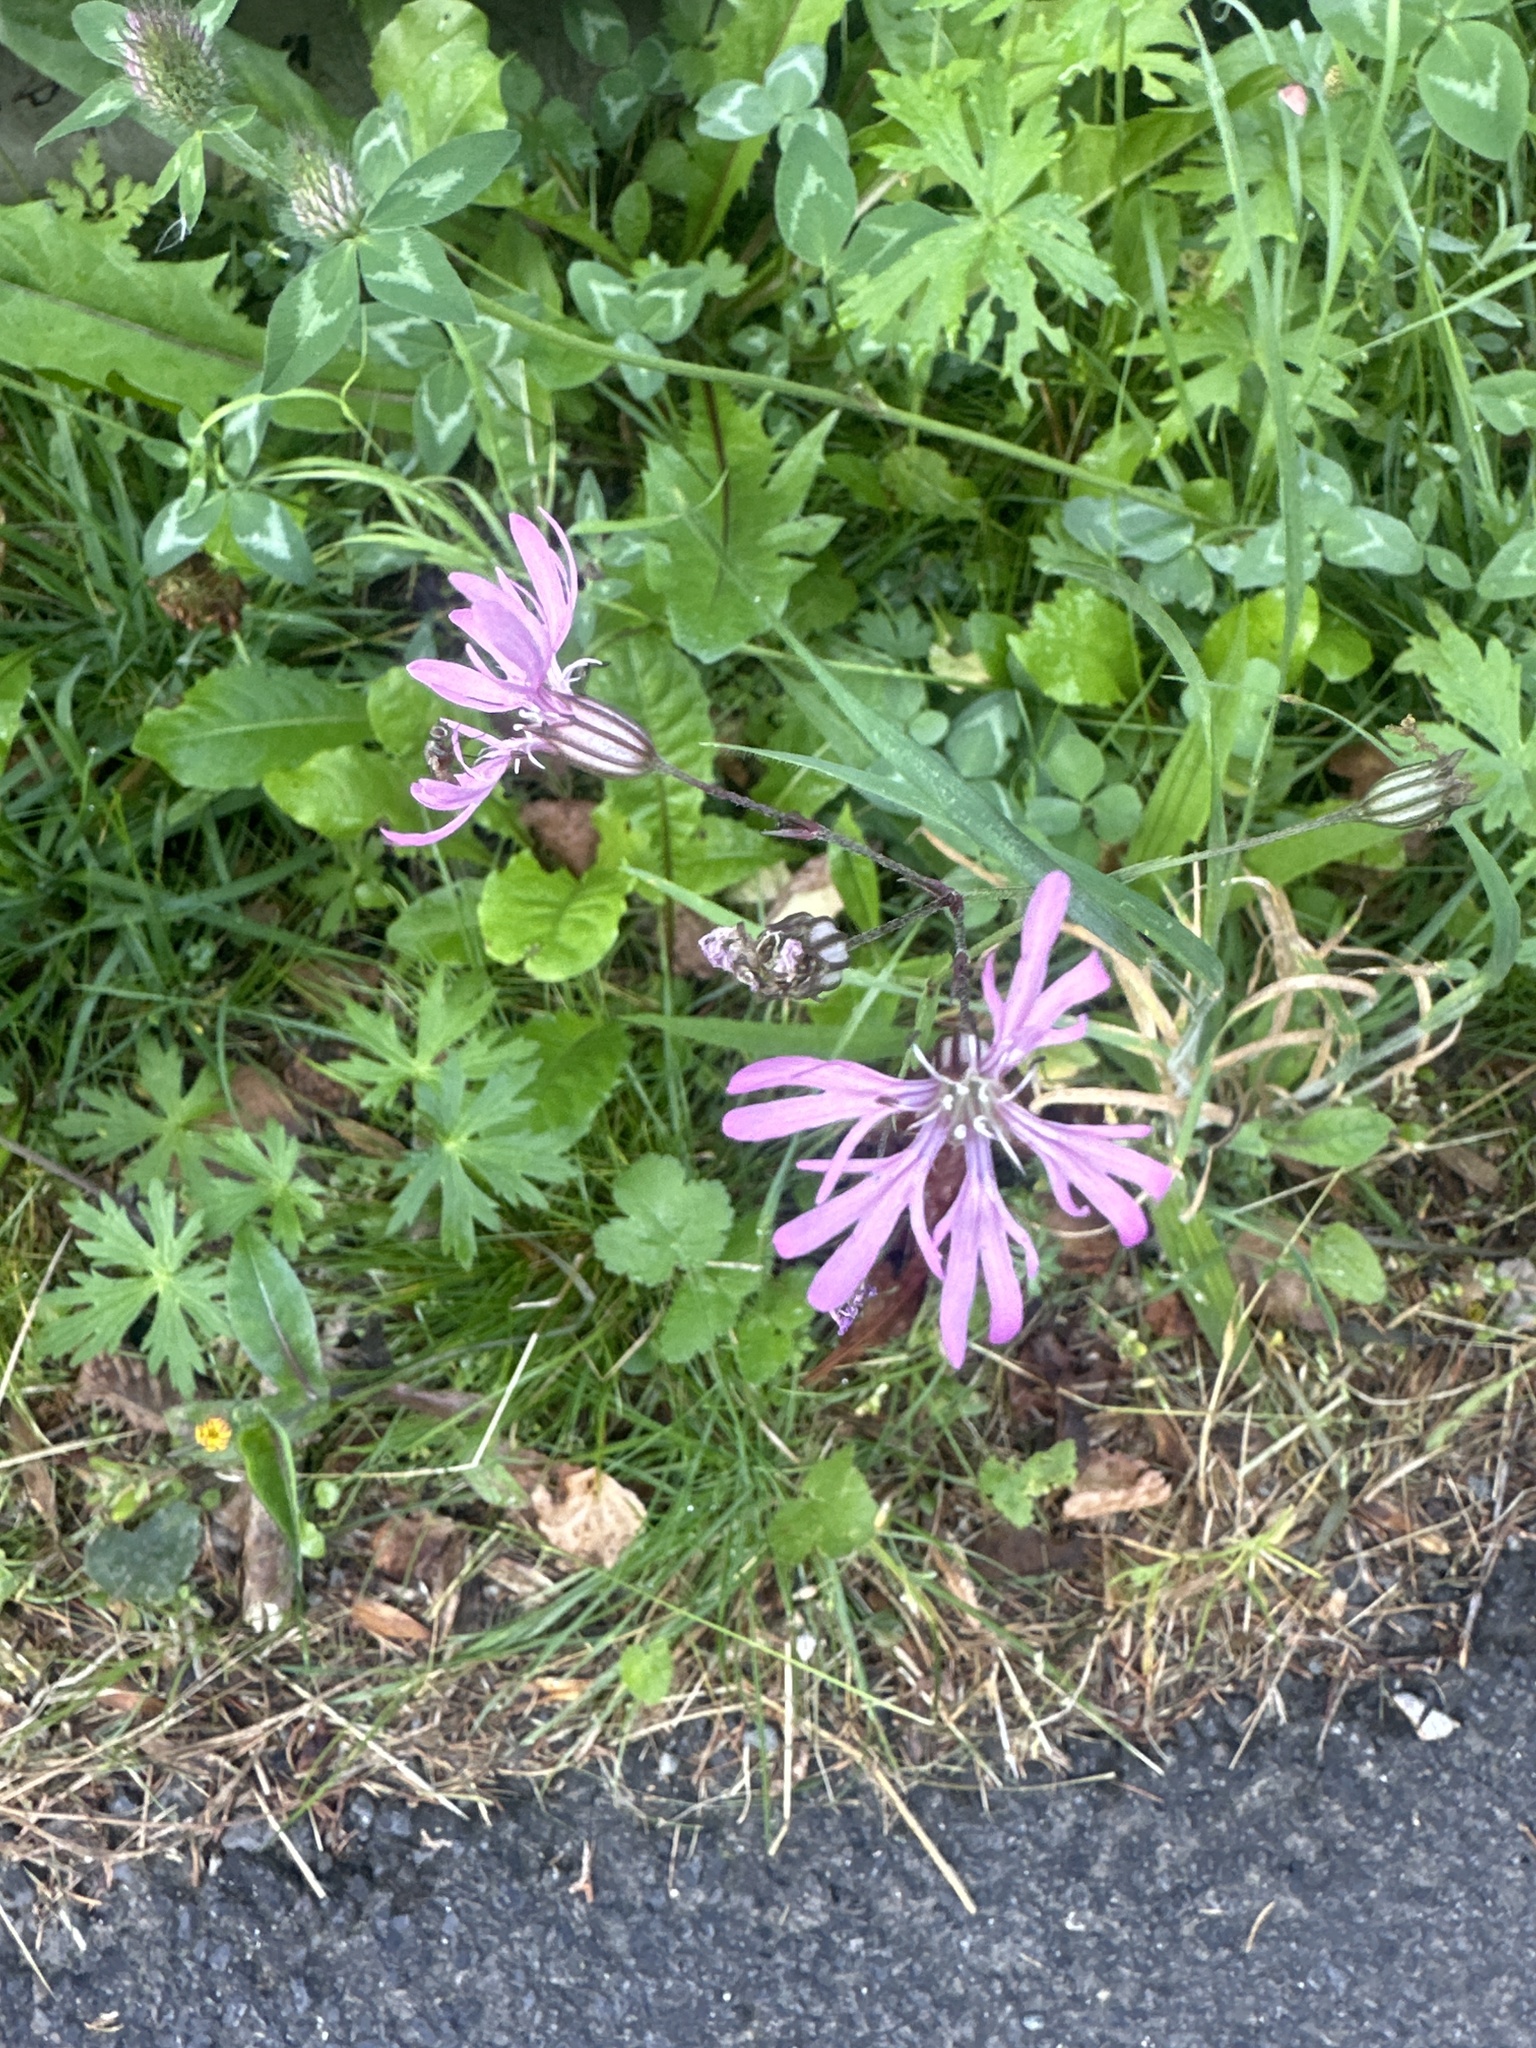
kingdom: Plantae
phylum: Tracheophyta
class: Magnoliopsida
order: Caryophyllales
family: Caryophyllaceae
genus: Silene
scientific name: Silene flos-cuculi
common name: Ragged-robin
